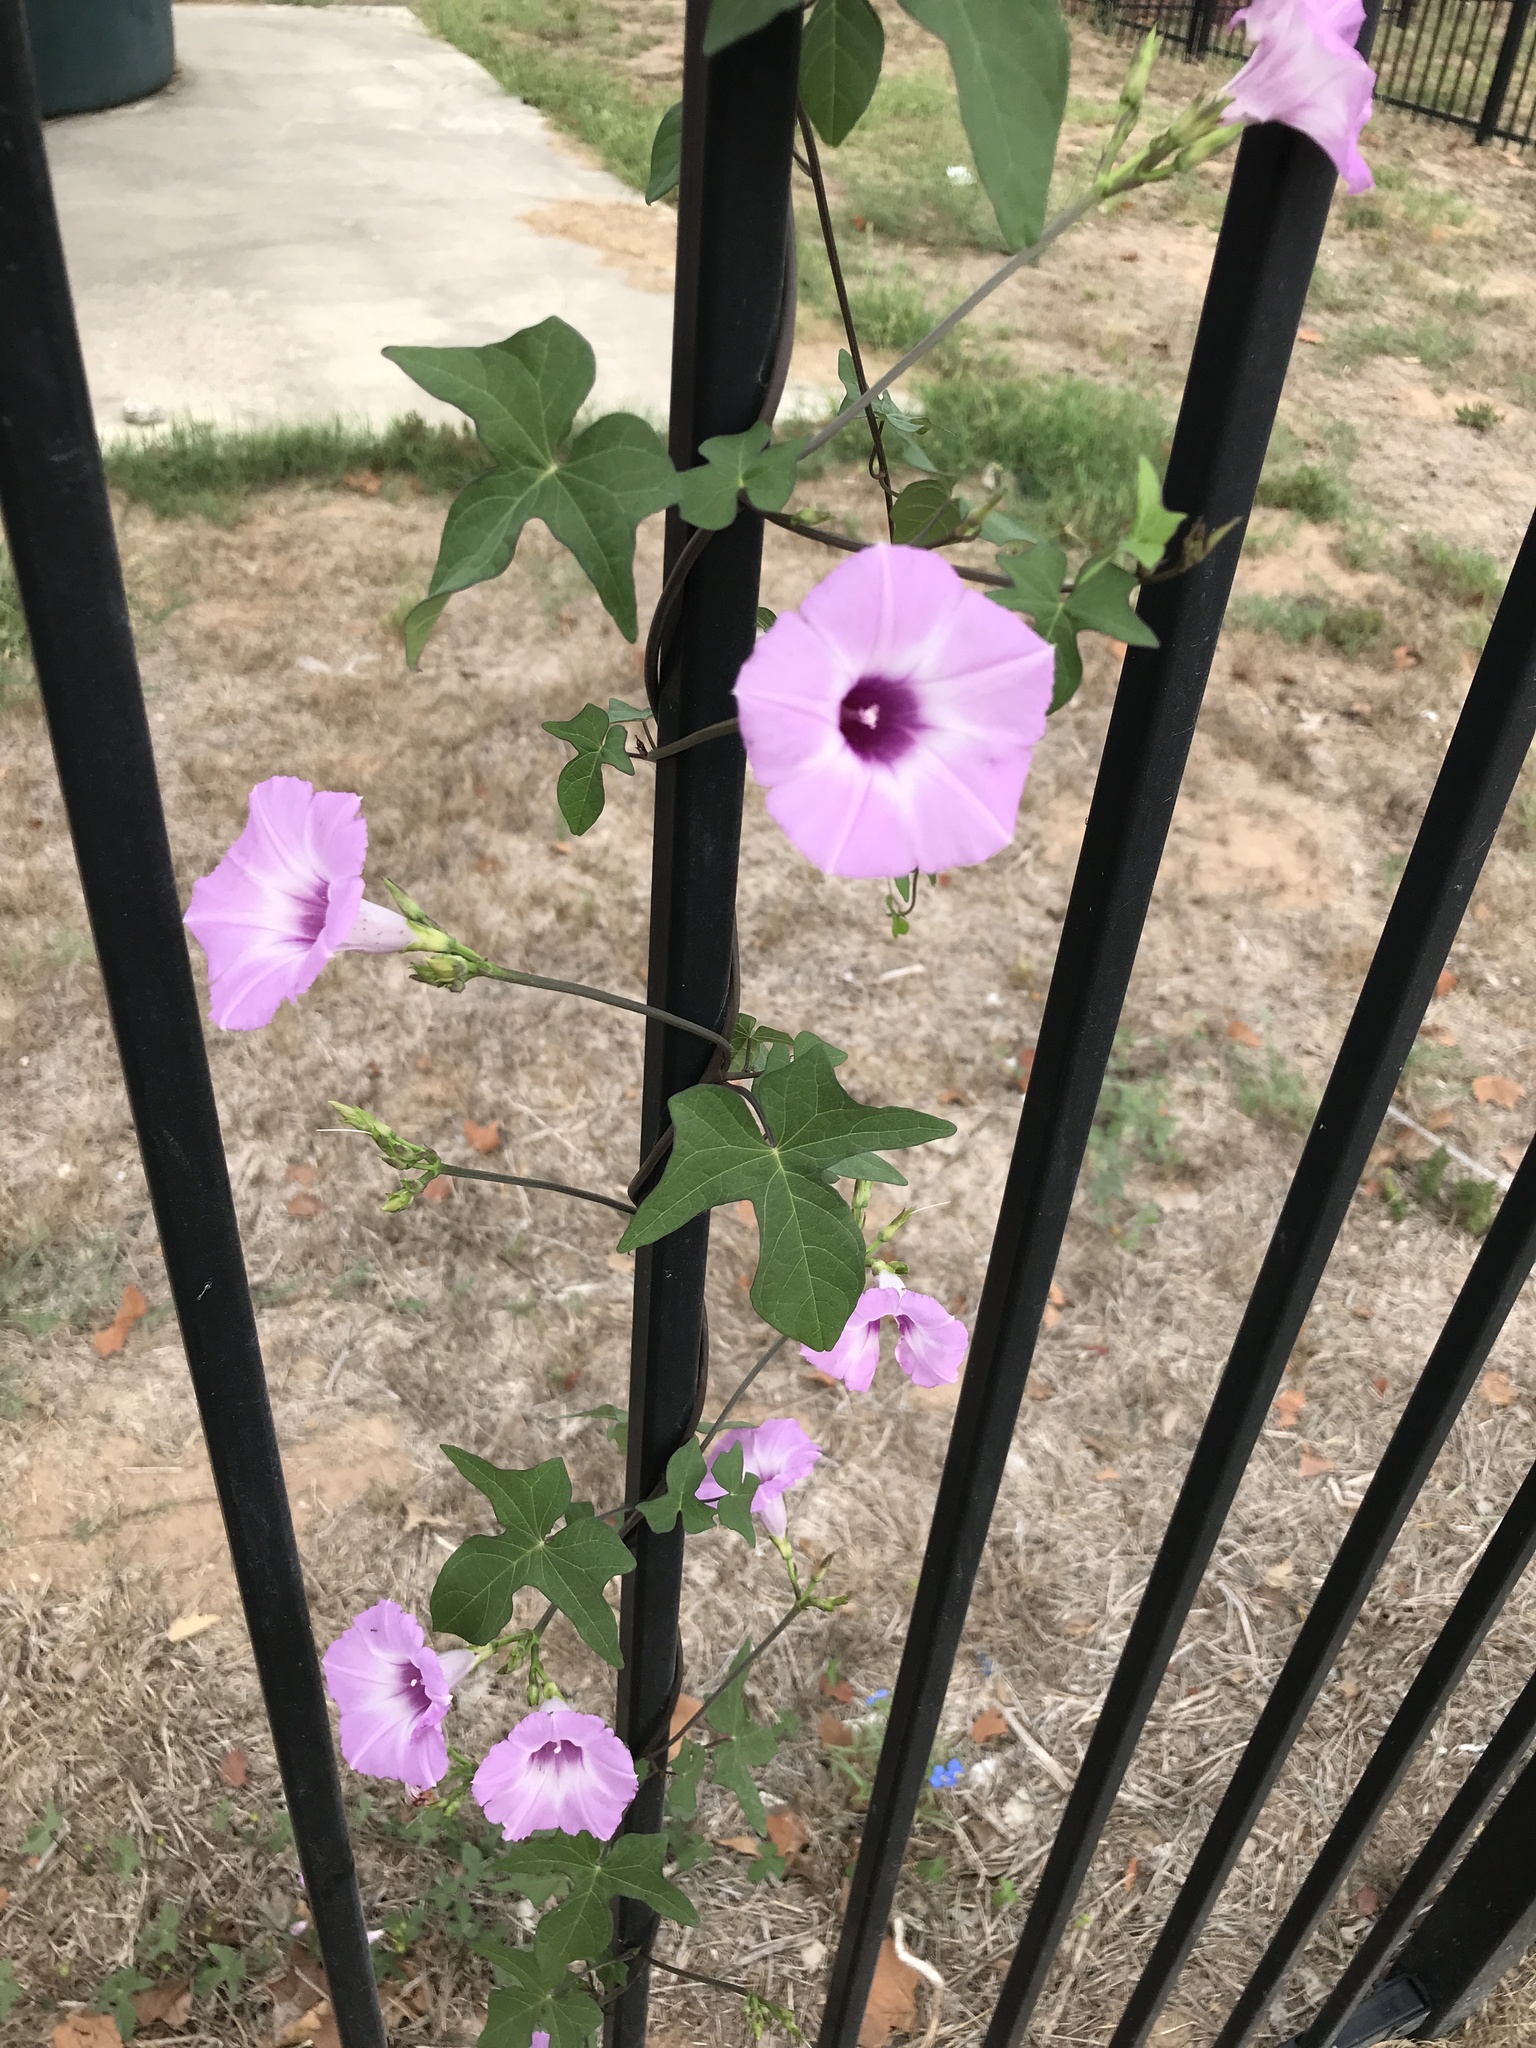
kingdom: Plantae
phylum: Tracheophyta
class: Magnoliopsida
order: Solanales
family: Convolvulaceae
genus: Ipomoea
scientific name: Ipomoea cordatotriloba
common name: Cotton morning glory
